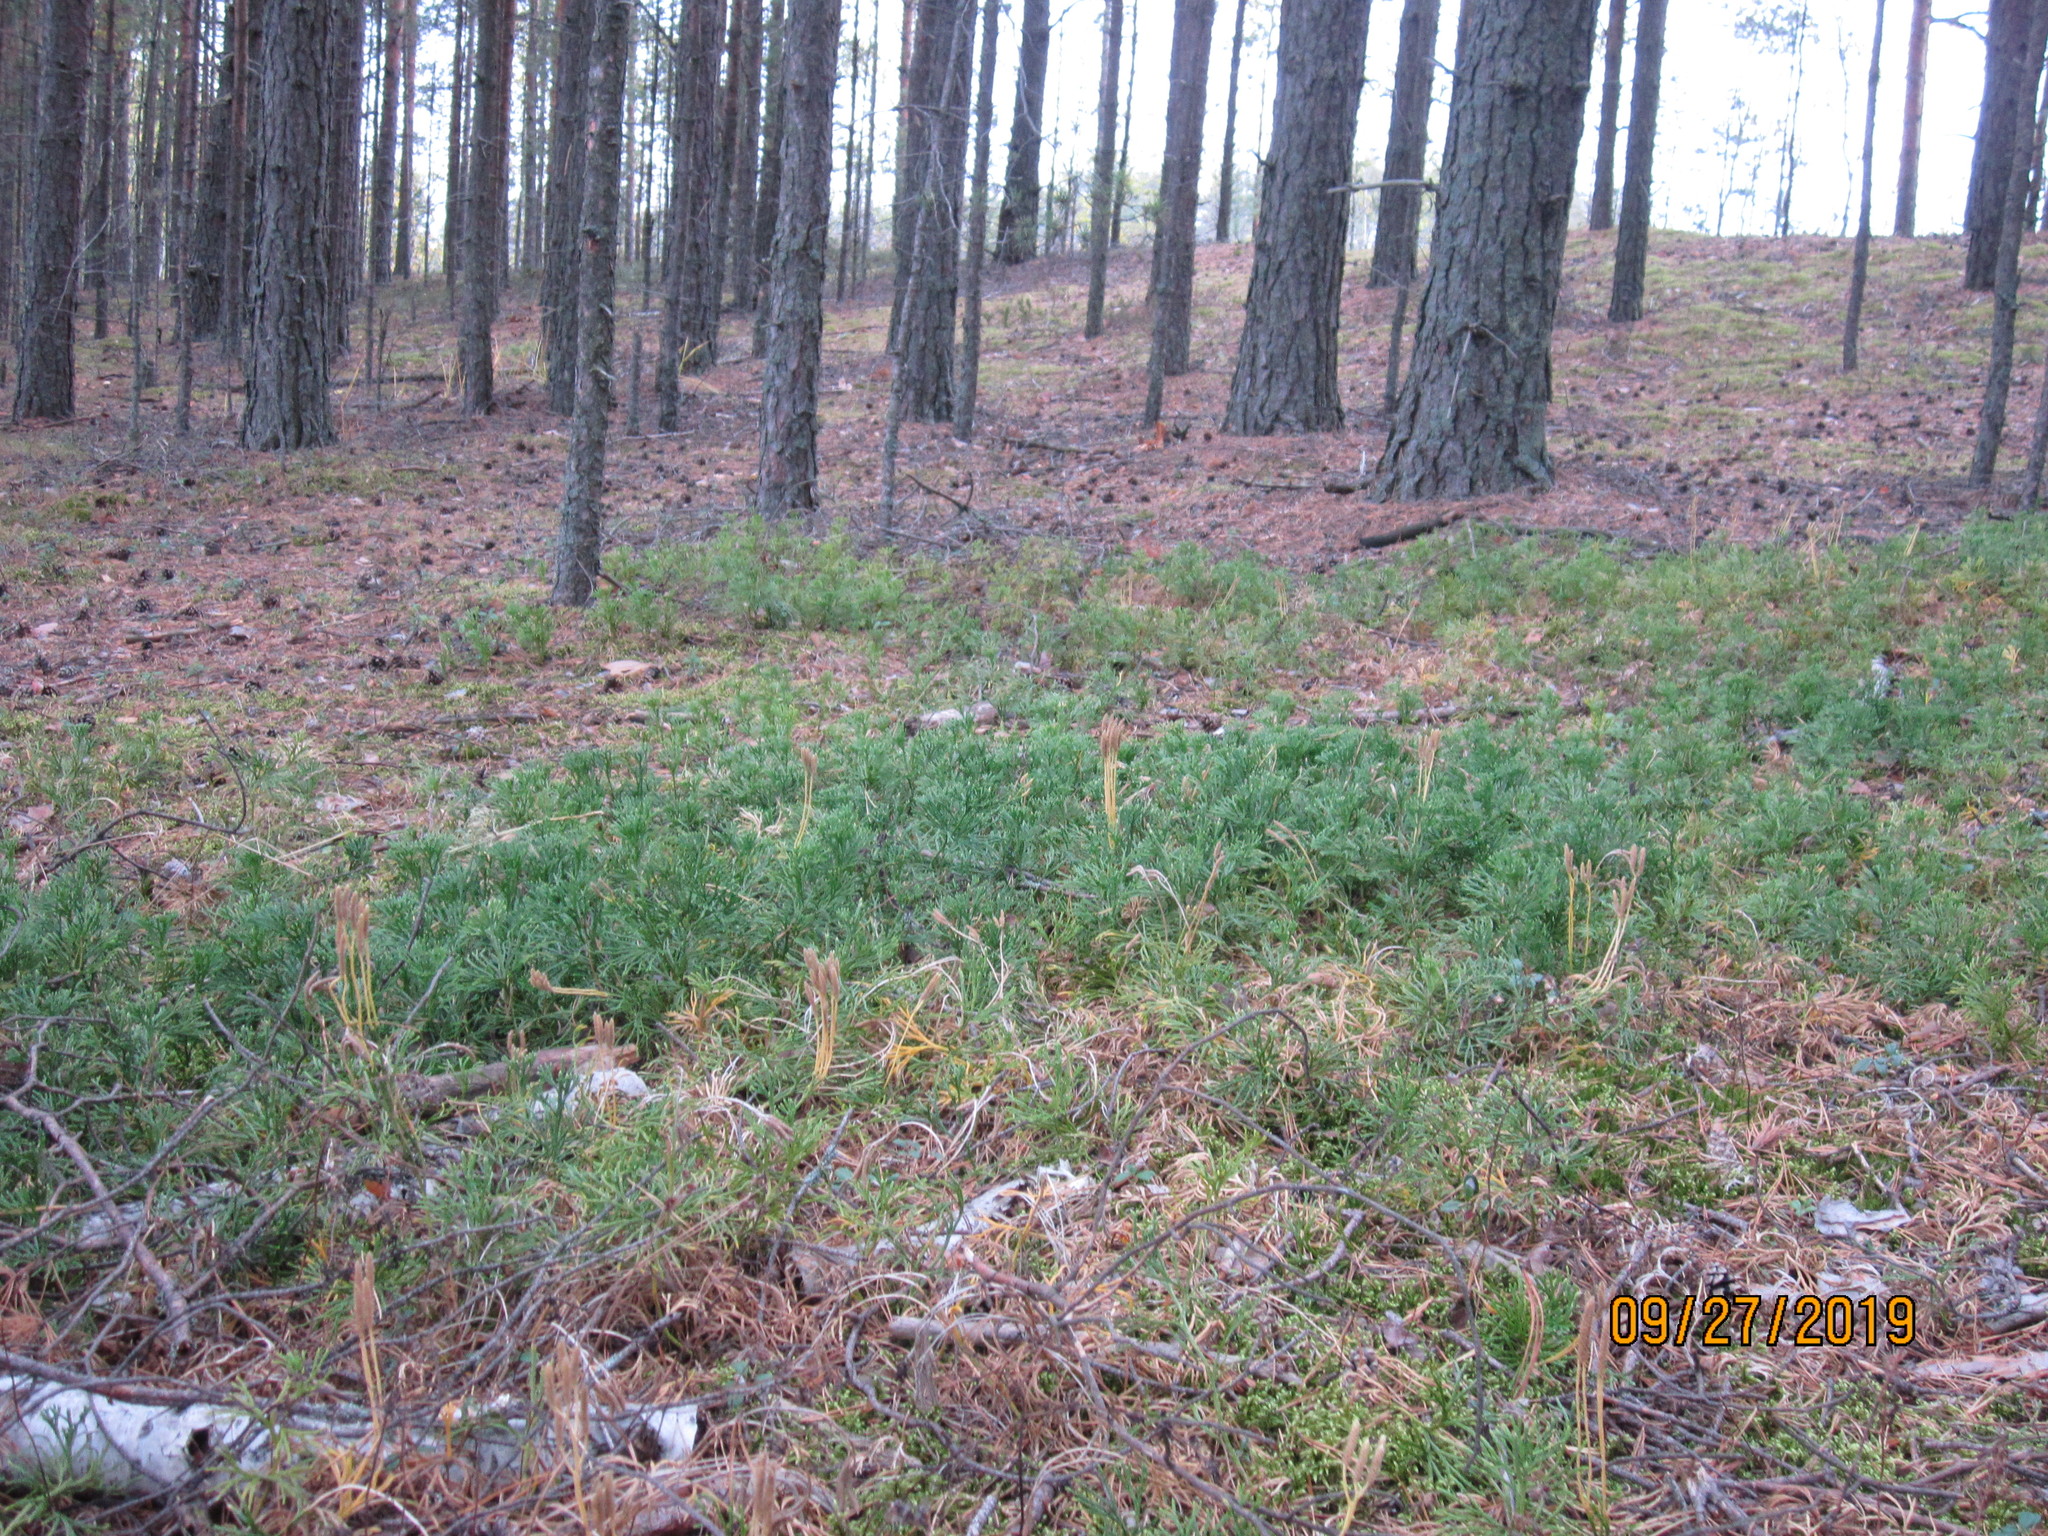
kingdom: Plantae
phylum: Tracheophyta
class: Lycopodiopsida
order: Lycopodiales
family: Lycopodiaceae
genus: Diphasiastrum
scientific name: Diphasiastrum complanatum
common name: Northern running-pine
